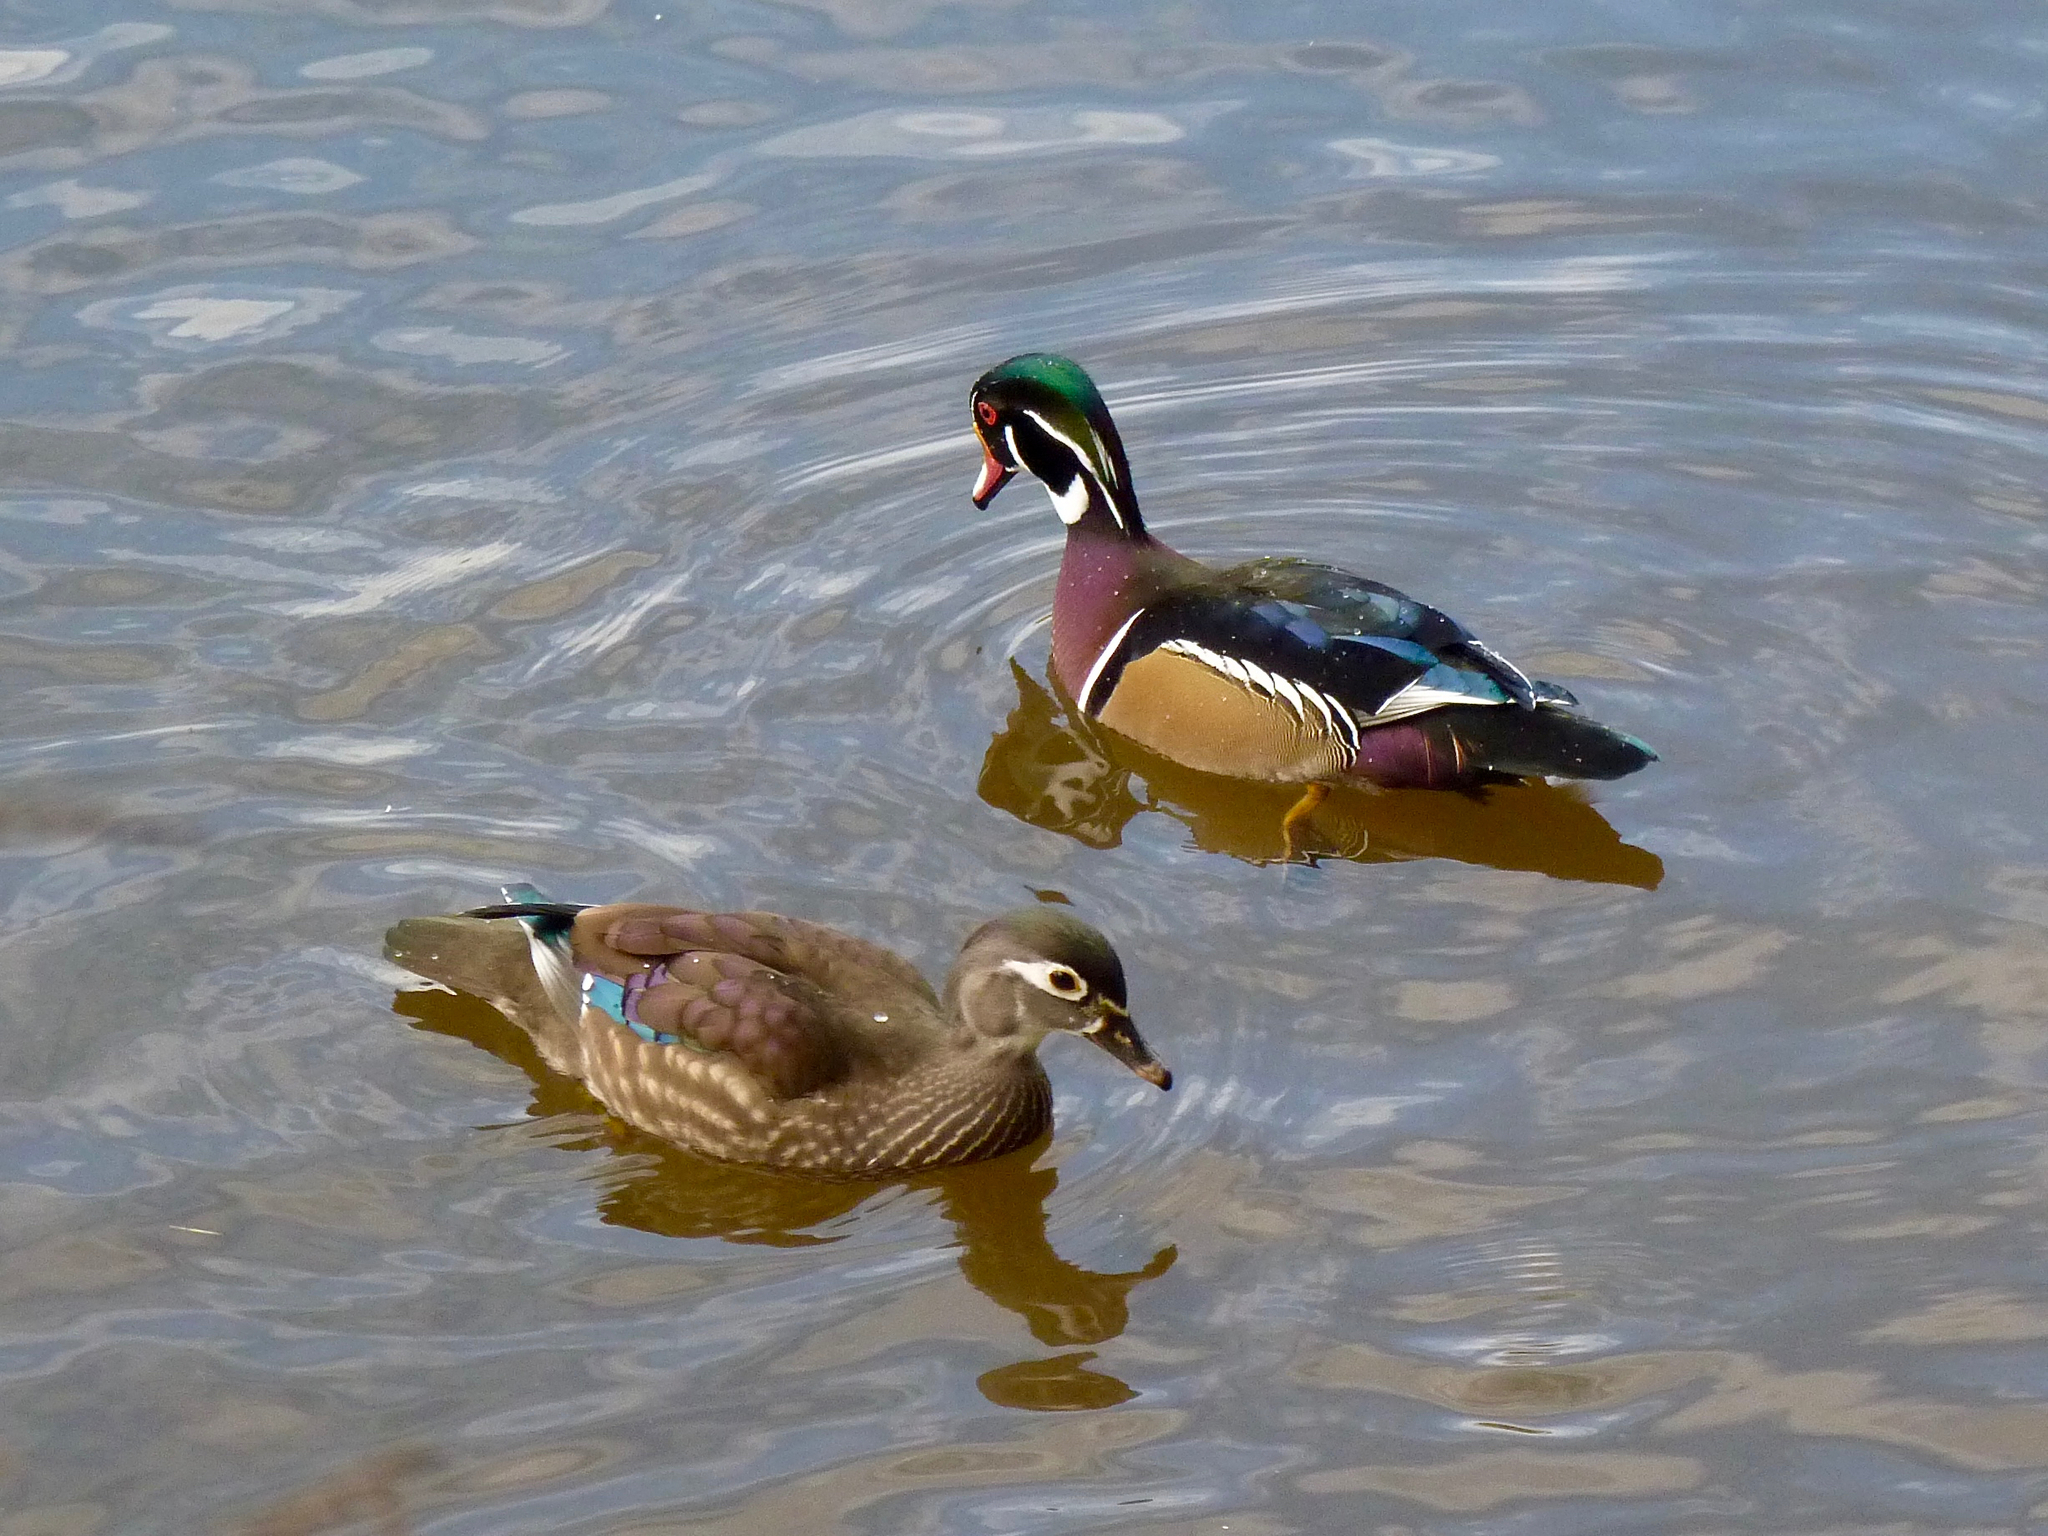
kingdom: Animalia
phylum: Chordata
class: Aves
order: Anseriformes
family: Anatidae
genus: Aix
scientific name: Aix sponsa
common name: Wood duck
